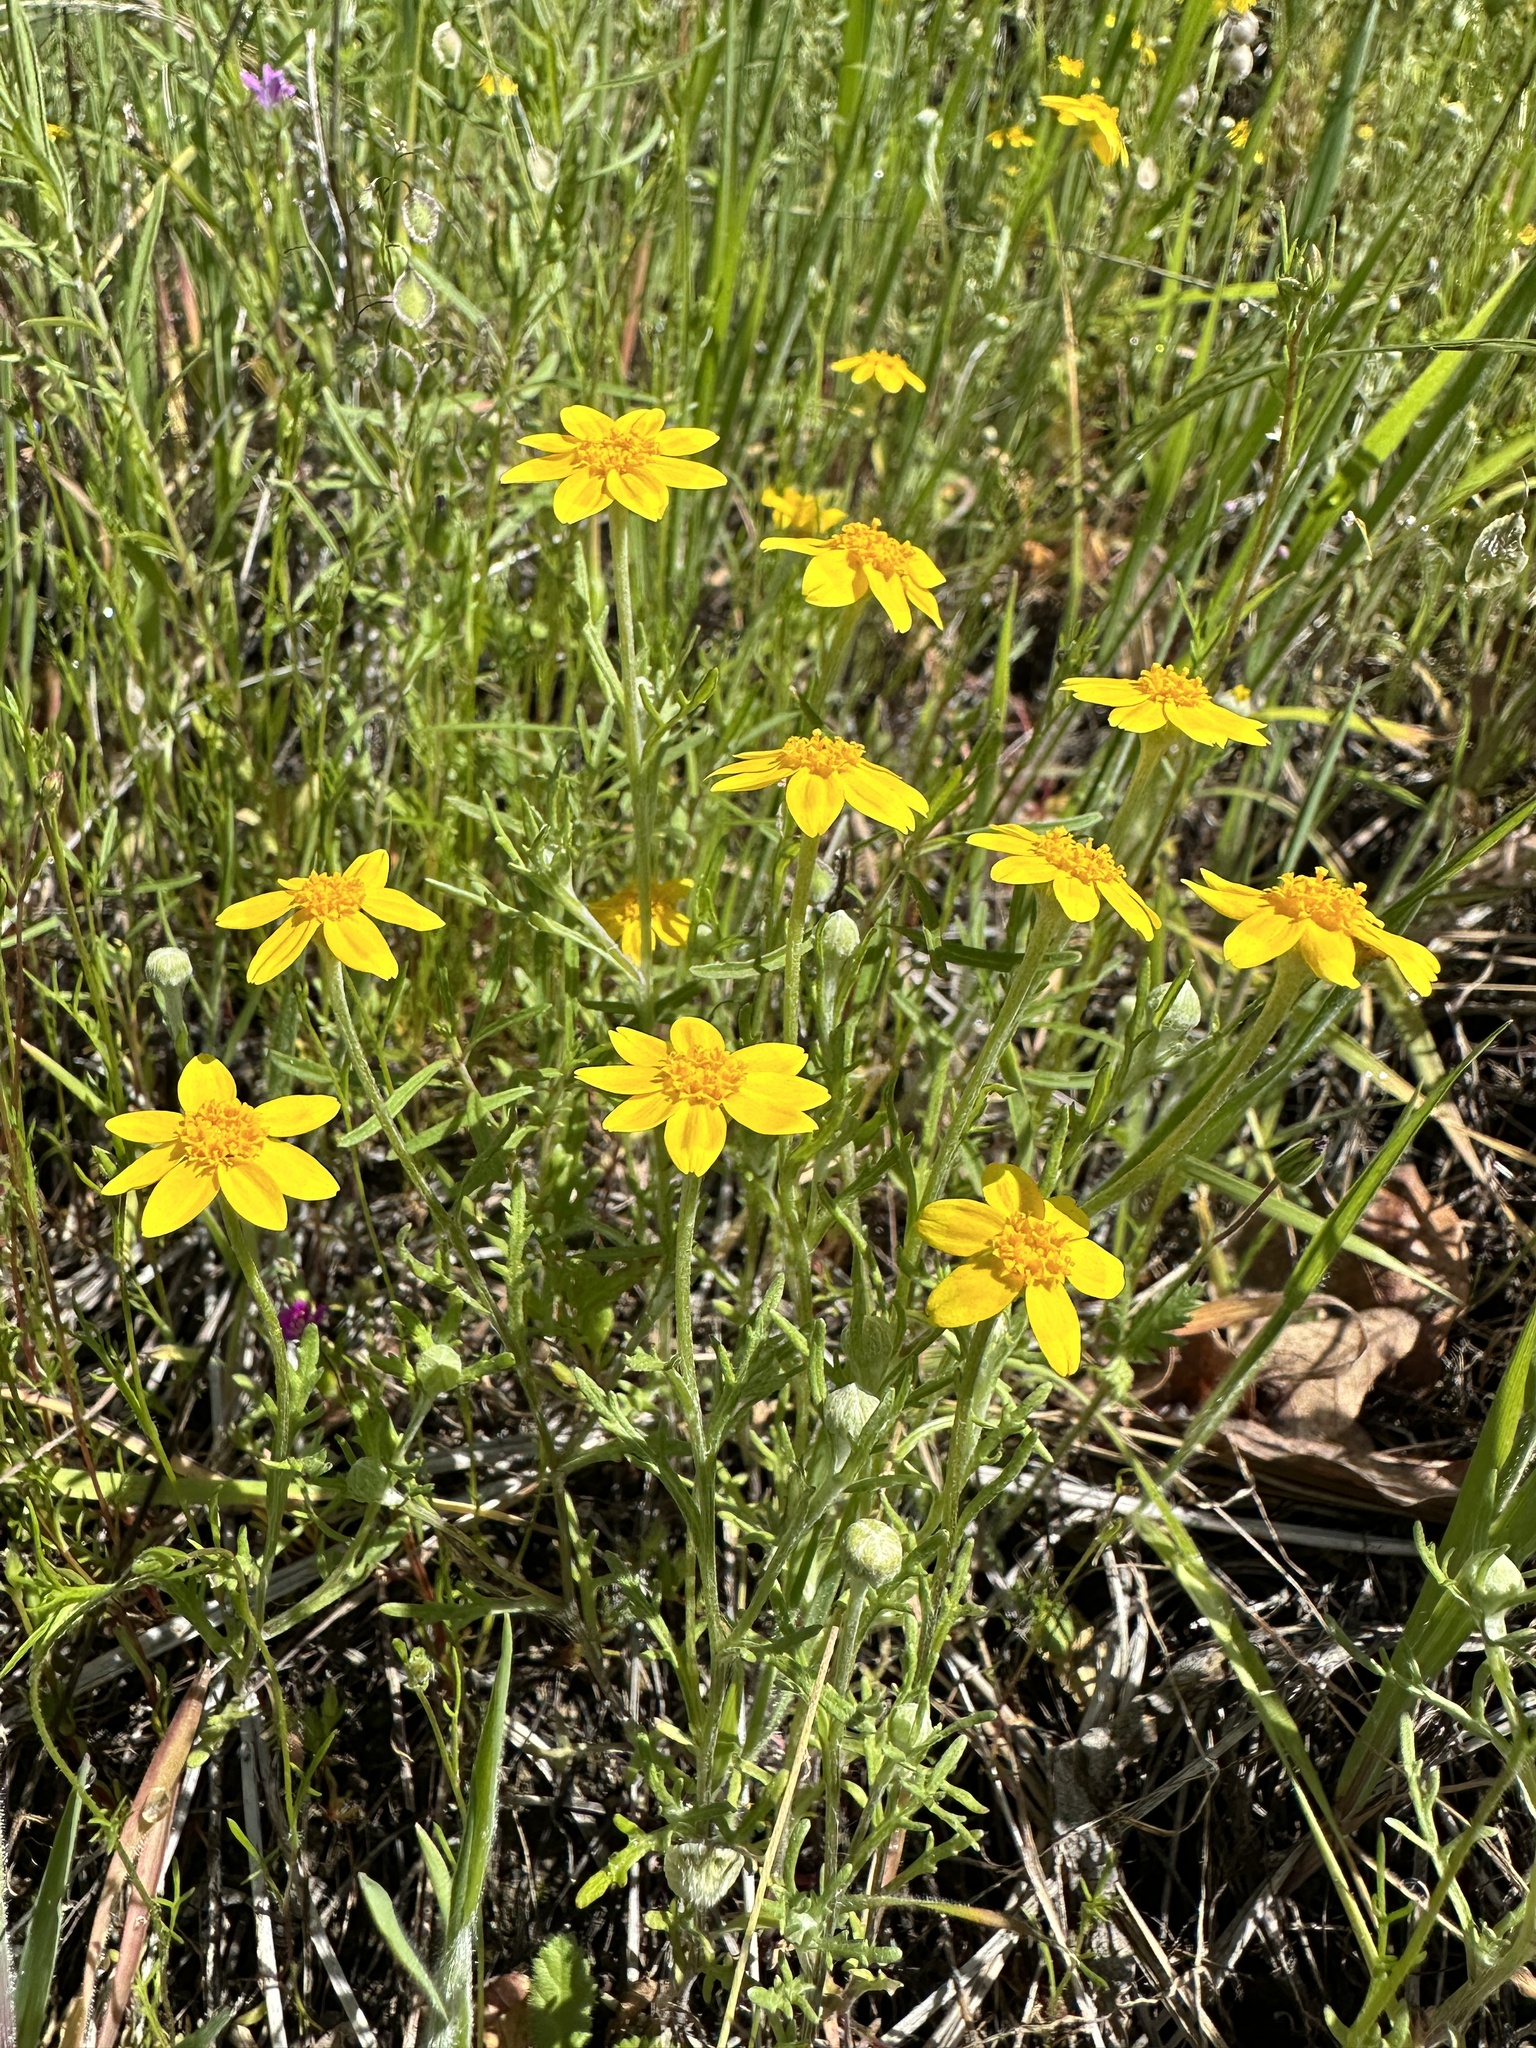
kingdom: Plantae
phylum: Tracheophyta
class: Magnoliopsida
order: Asterales
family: Asteraceae
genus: Pseudobahia
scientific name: Pseudobahia heermannii
